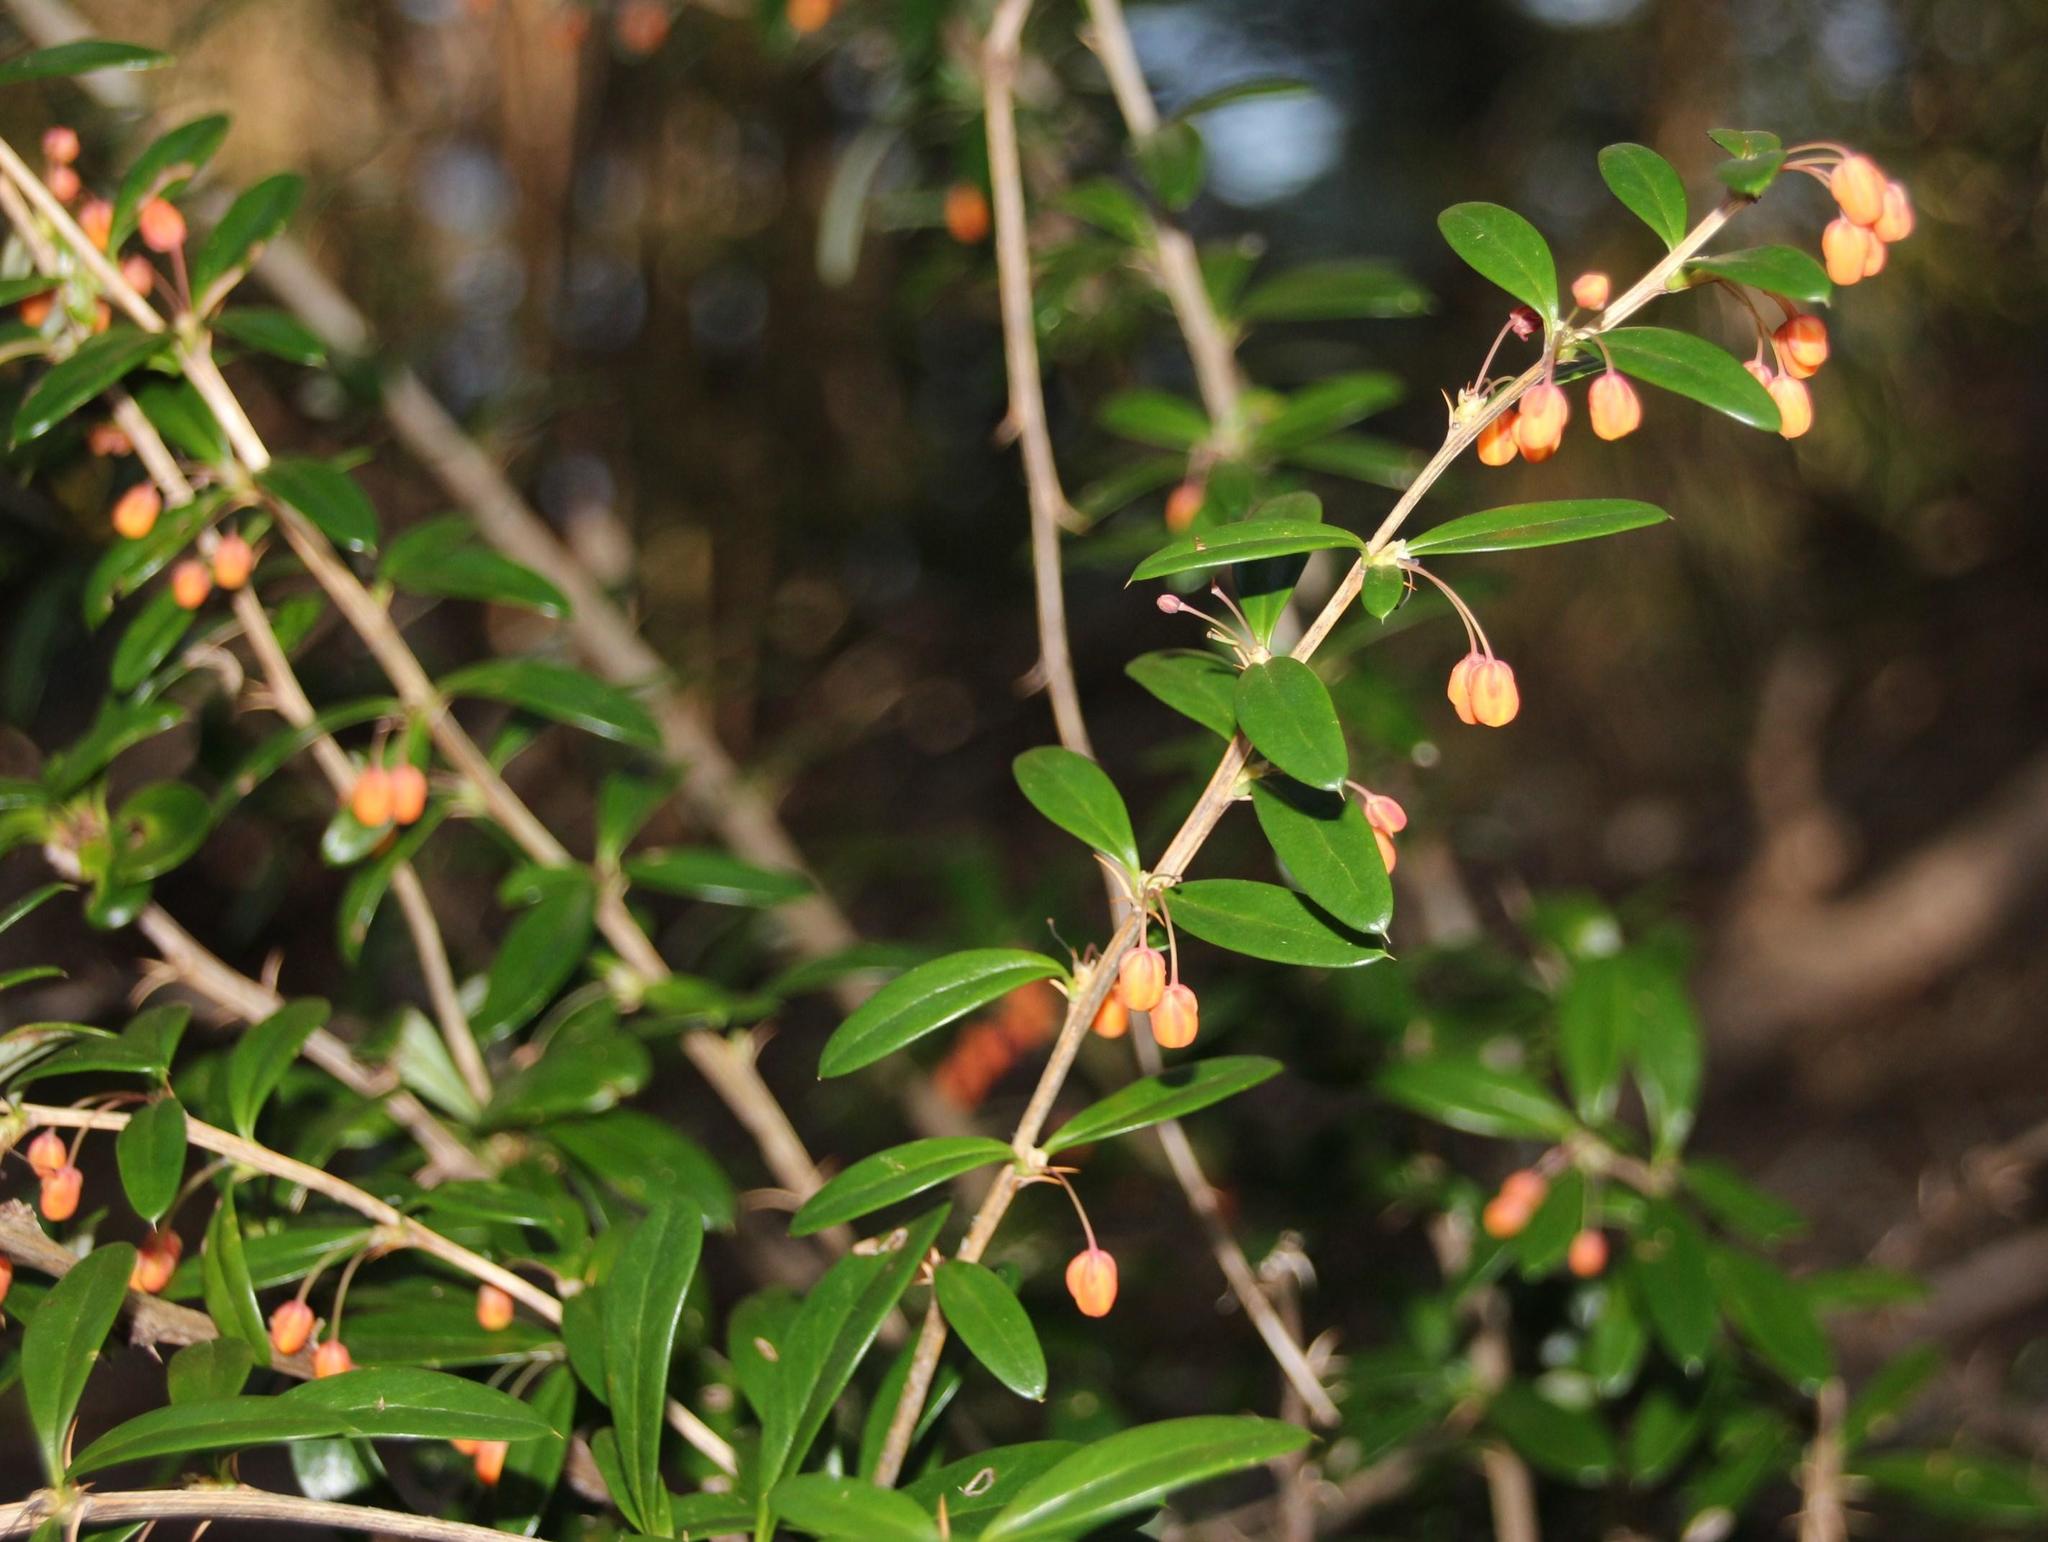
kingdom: Plantae
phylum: Tracheophyta
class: Magnoliopsida
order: Ranunculales
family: Berberidaceae
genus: Berberis
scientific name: Berberis trigona
